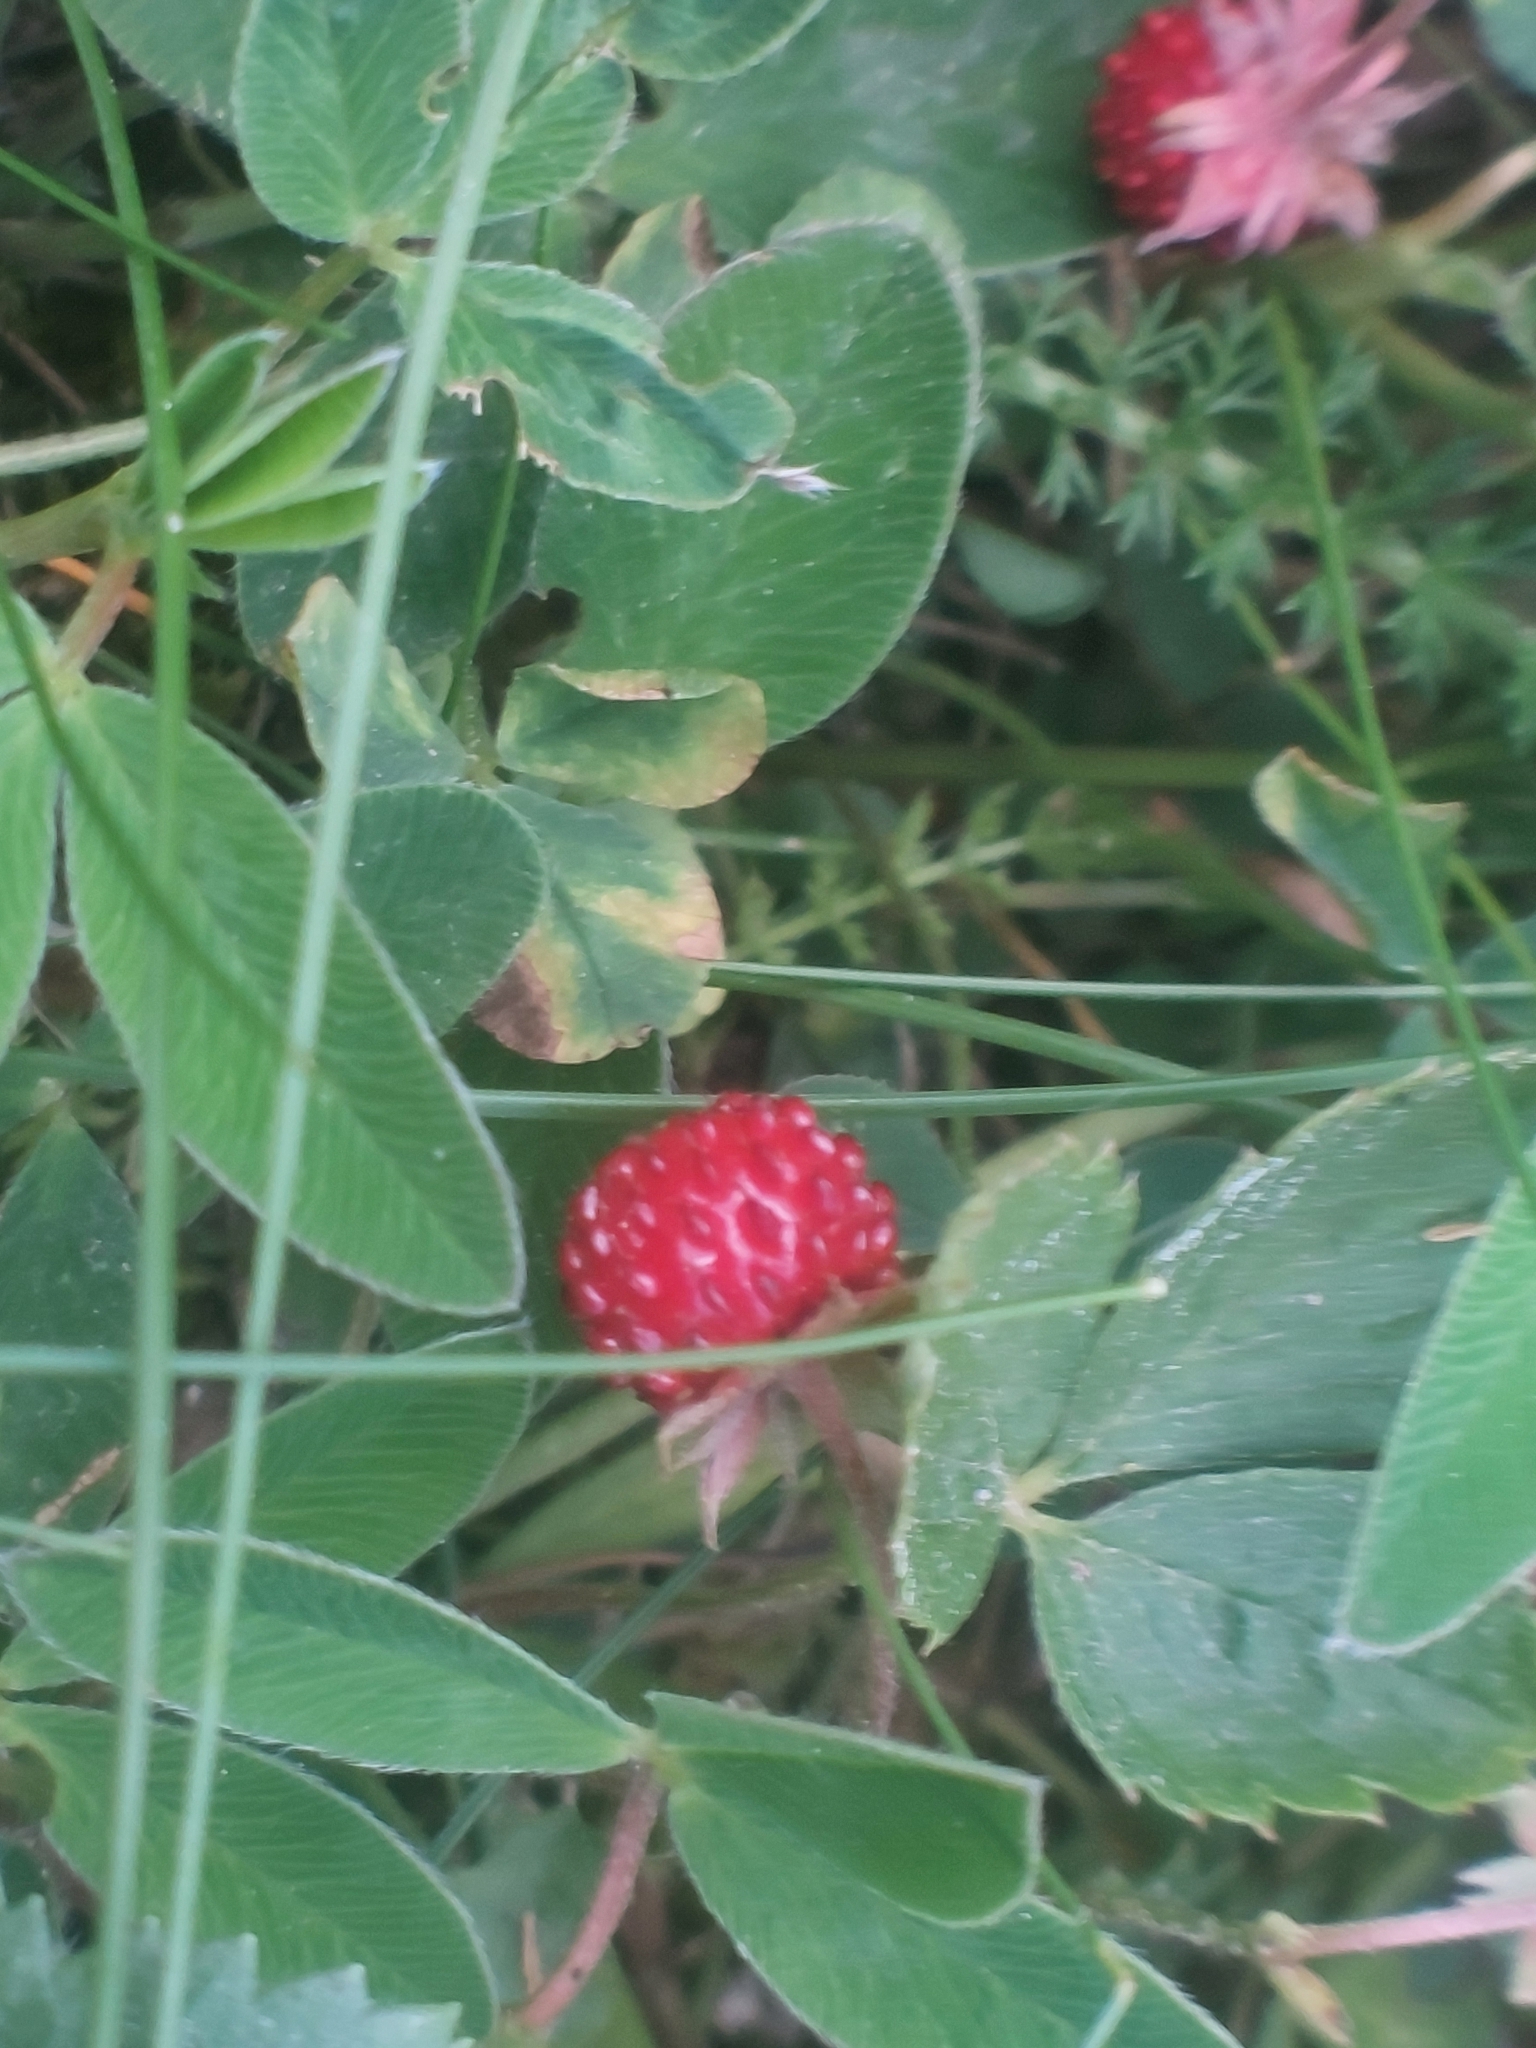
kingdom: Plantae
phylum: Tracheophyta
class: Magnoliopsida
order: Rosales
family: Rosaceae
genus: Fragaria
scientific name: Fragaria vesca
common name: Wild strawberry
